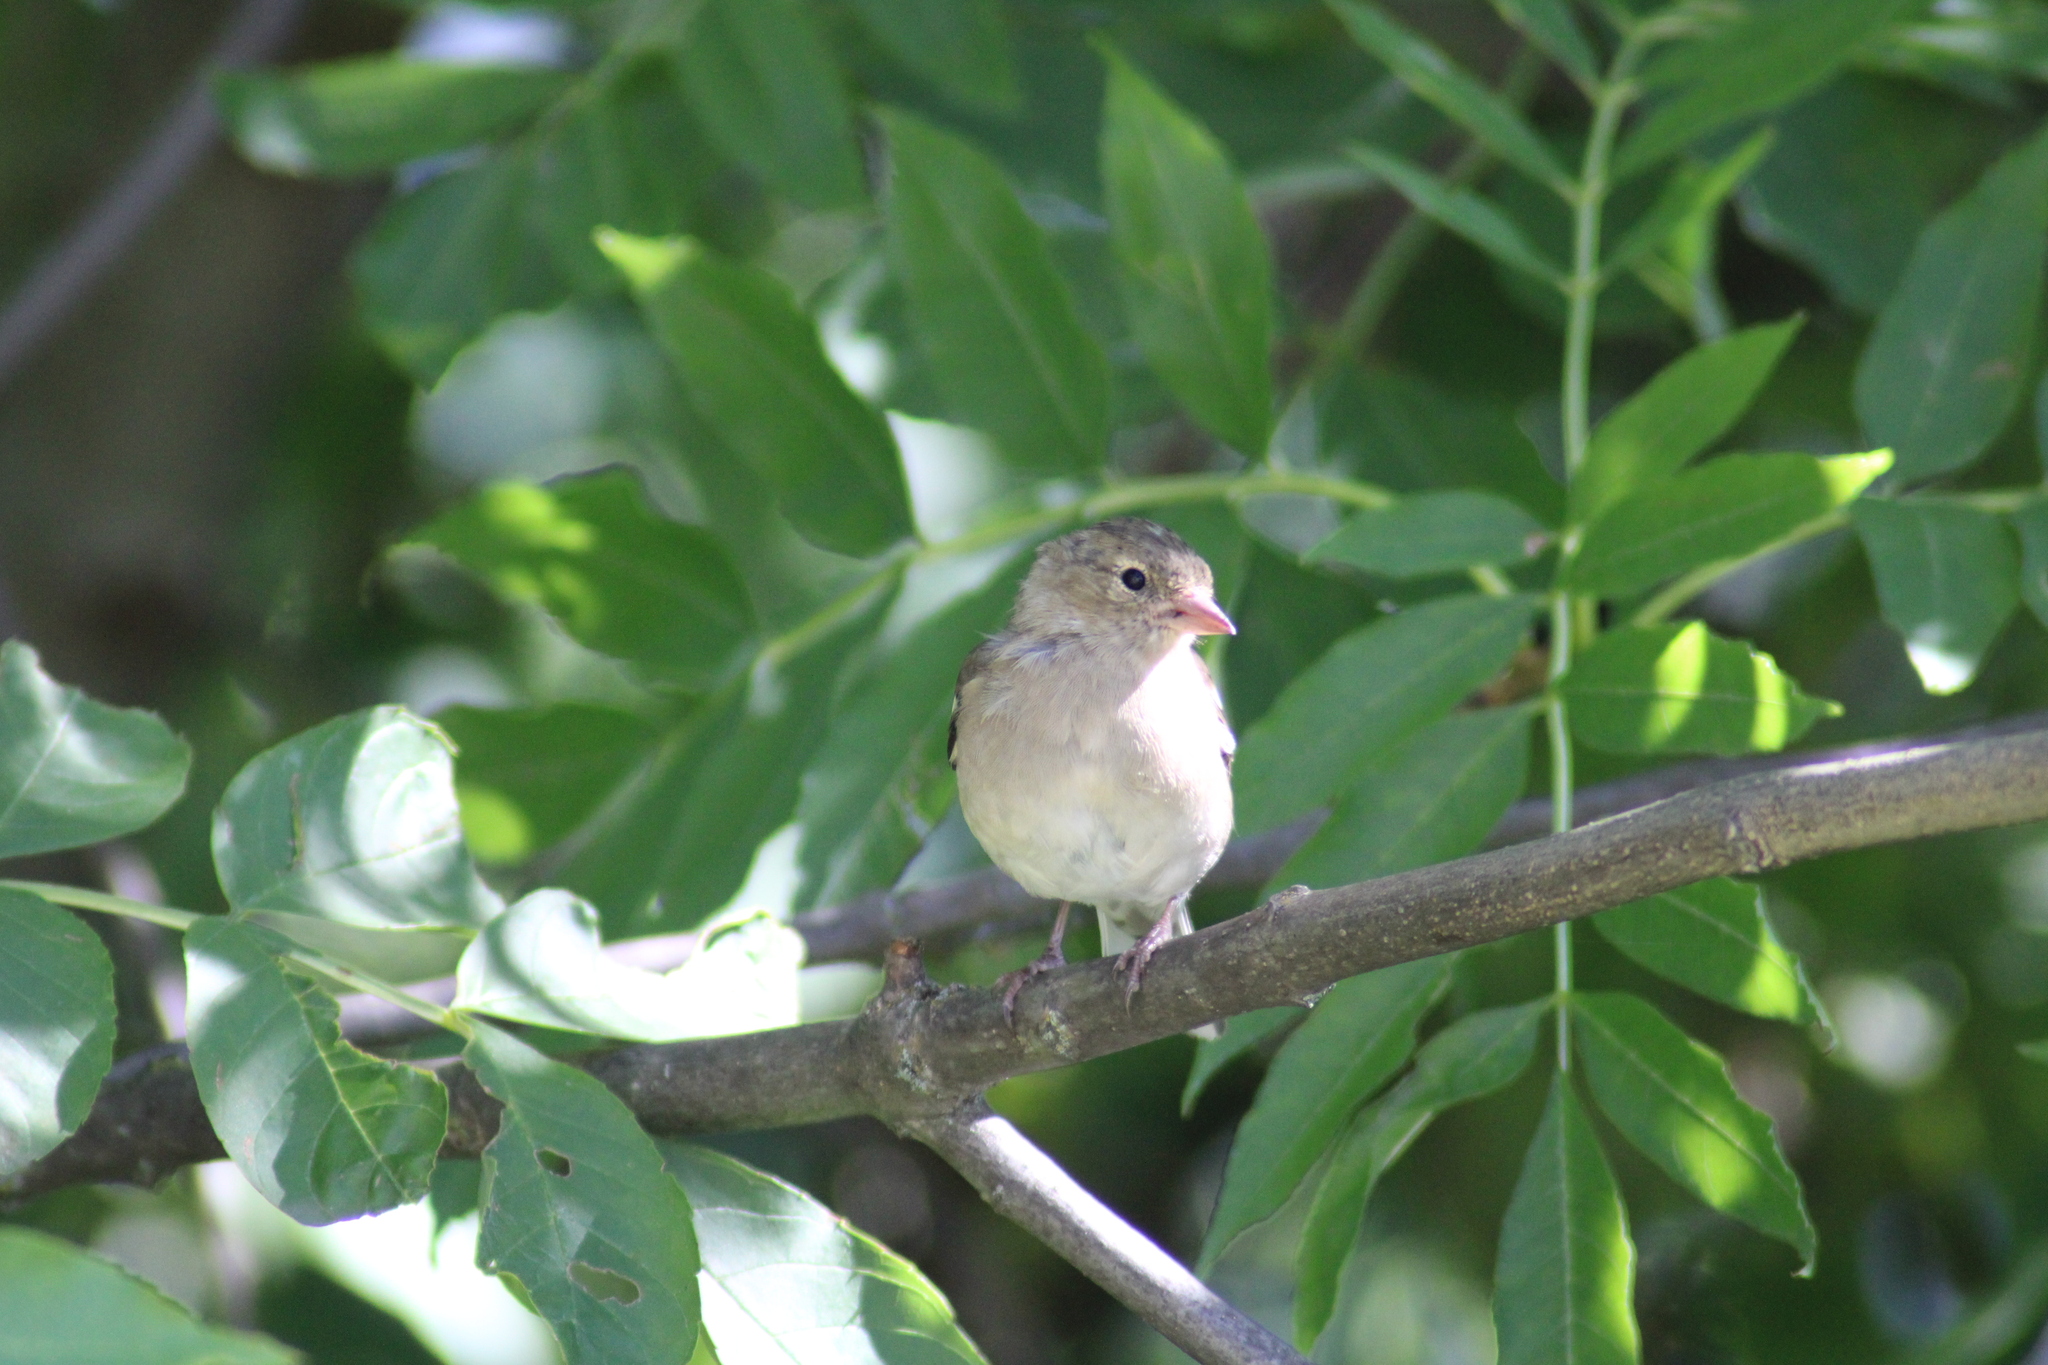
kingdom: Animalia
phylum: Chordata
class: Aves
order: Passeriformes
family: Fringillidae
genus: Fringilla
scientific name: Fringilla coelebs
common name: Common chaffinch
